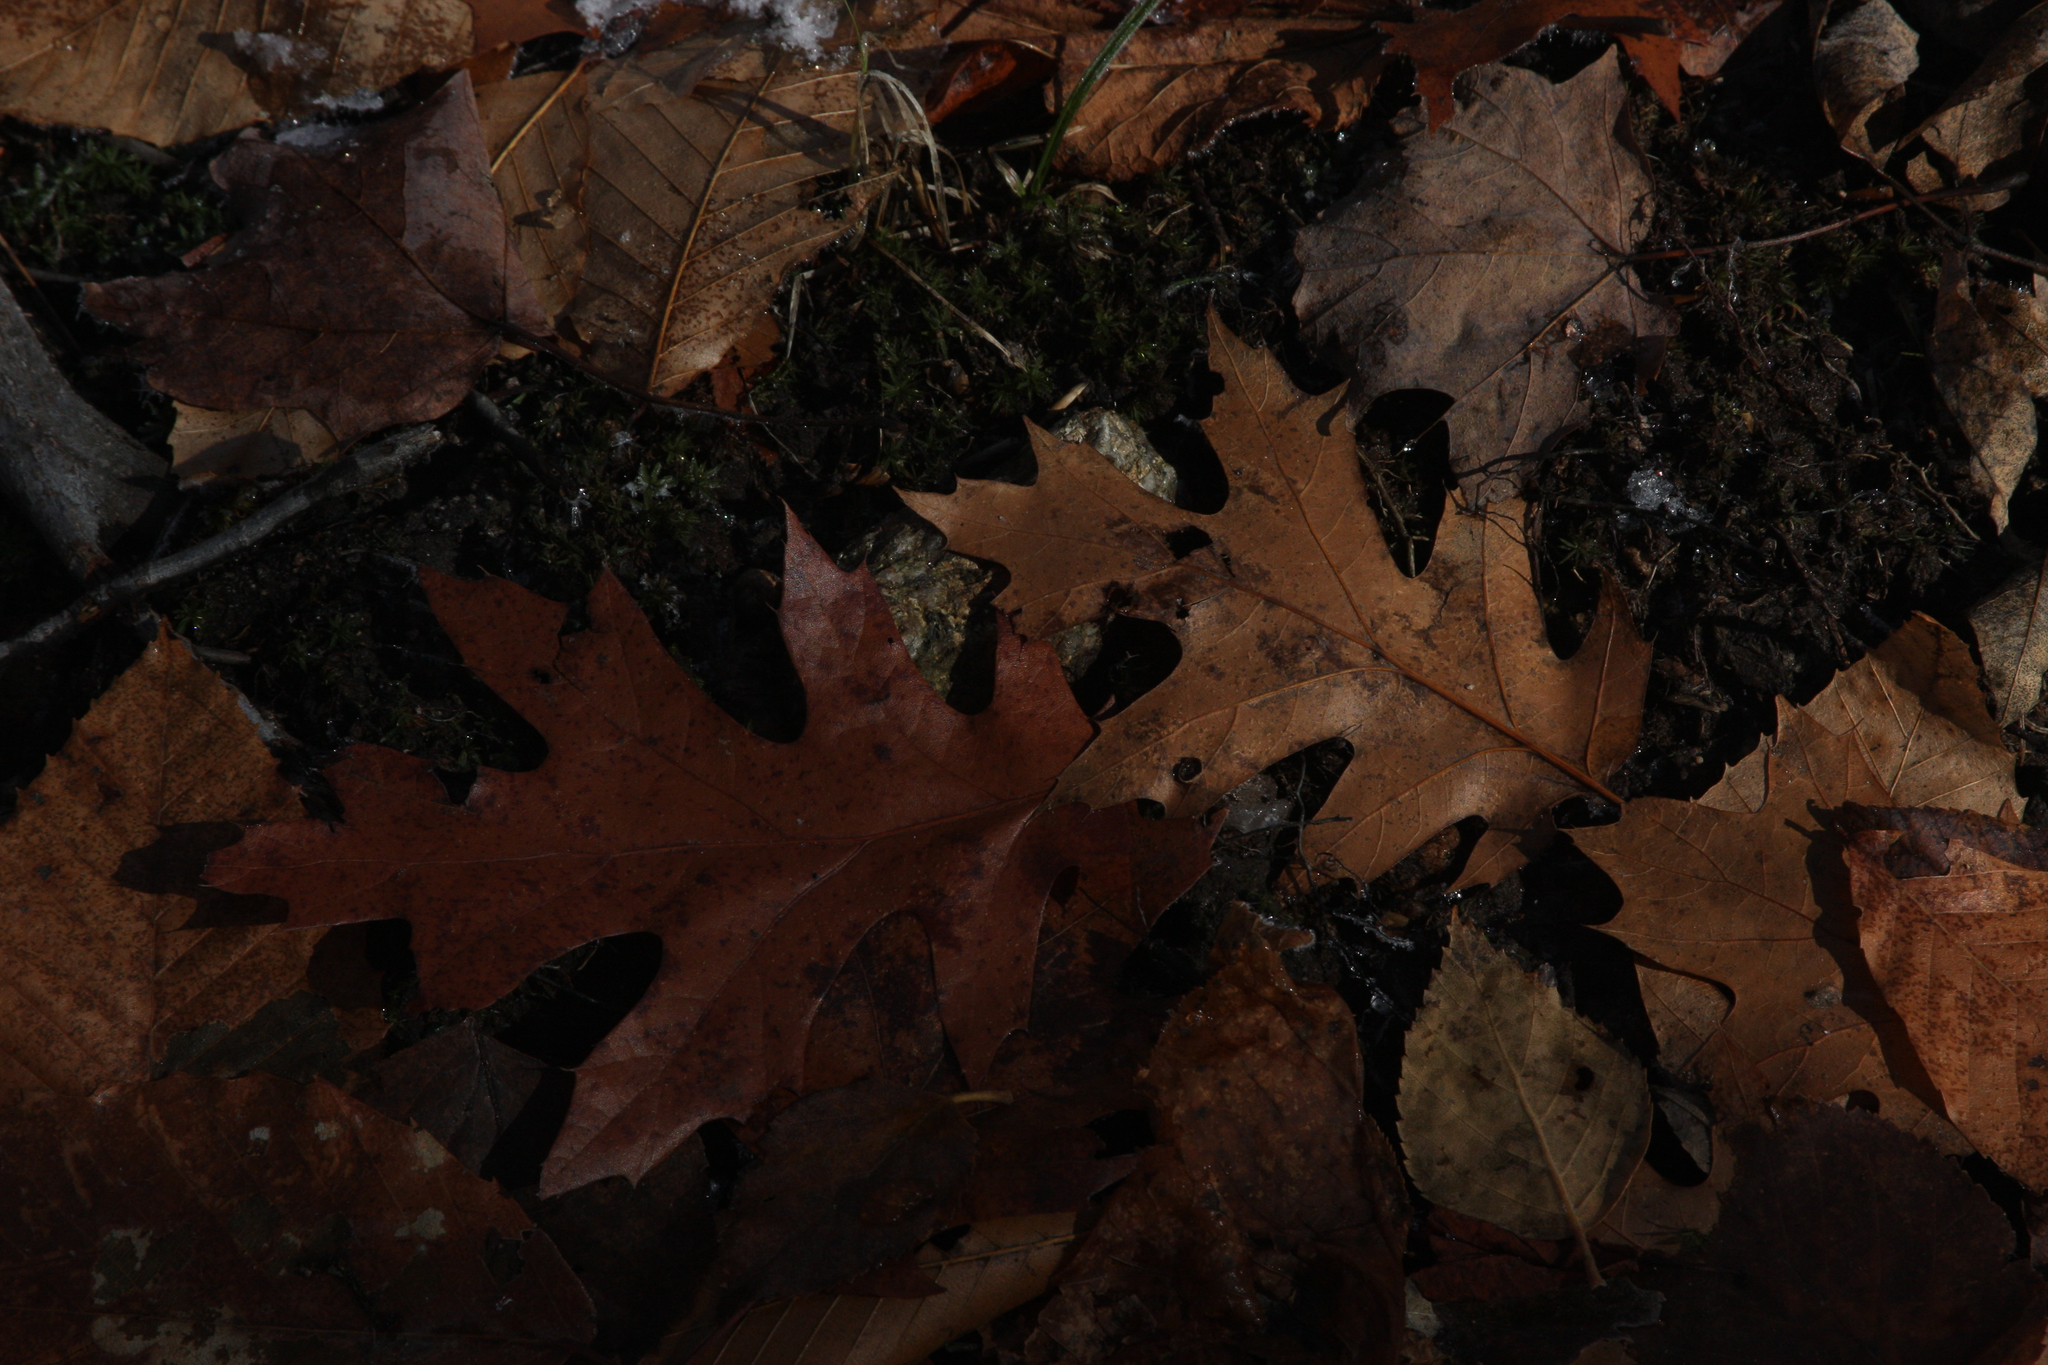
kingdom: Plantae
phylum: Tracheophyta
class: Magnoliopsida
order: Fagales
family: Fagaceae
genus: Quercus
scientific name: Quercus rubra
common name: Red oak
